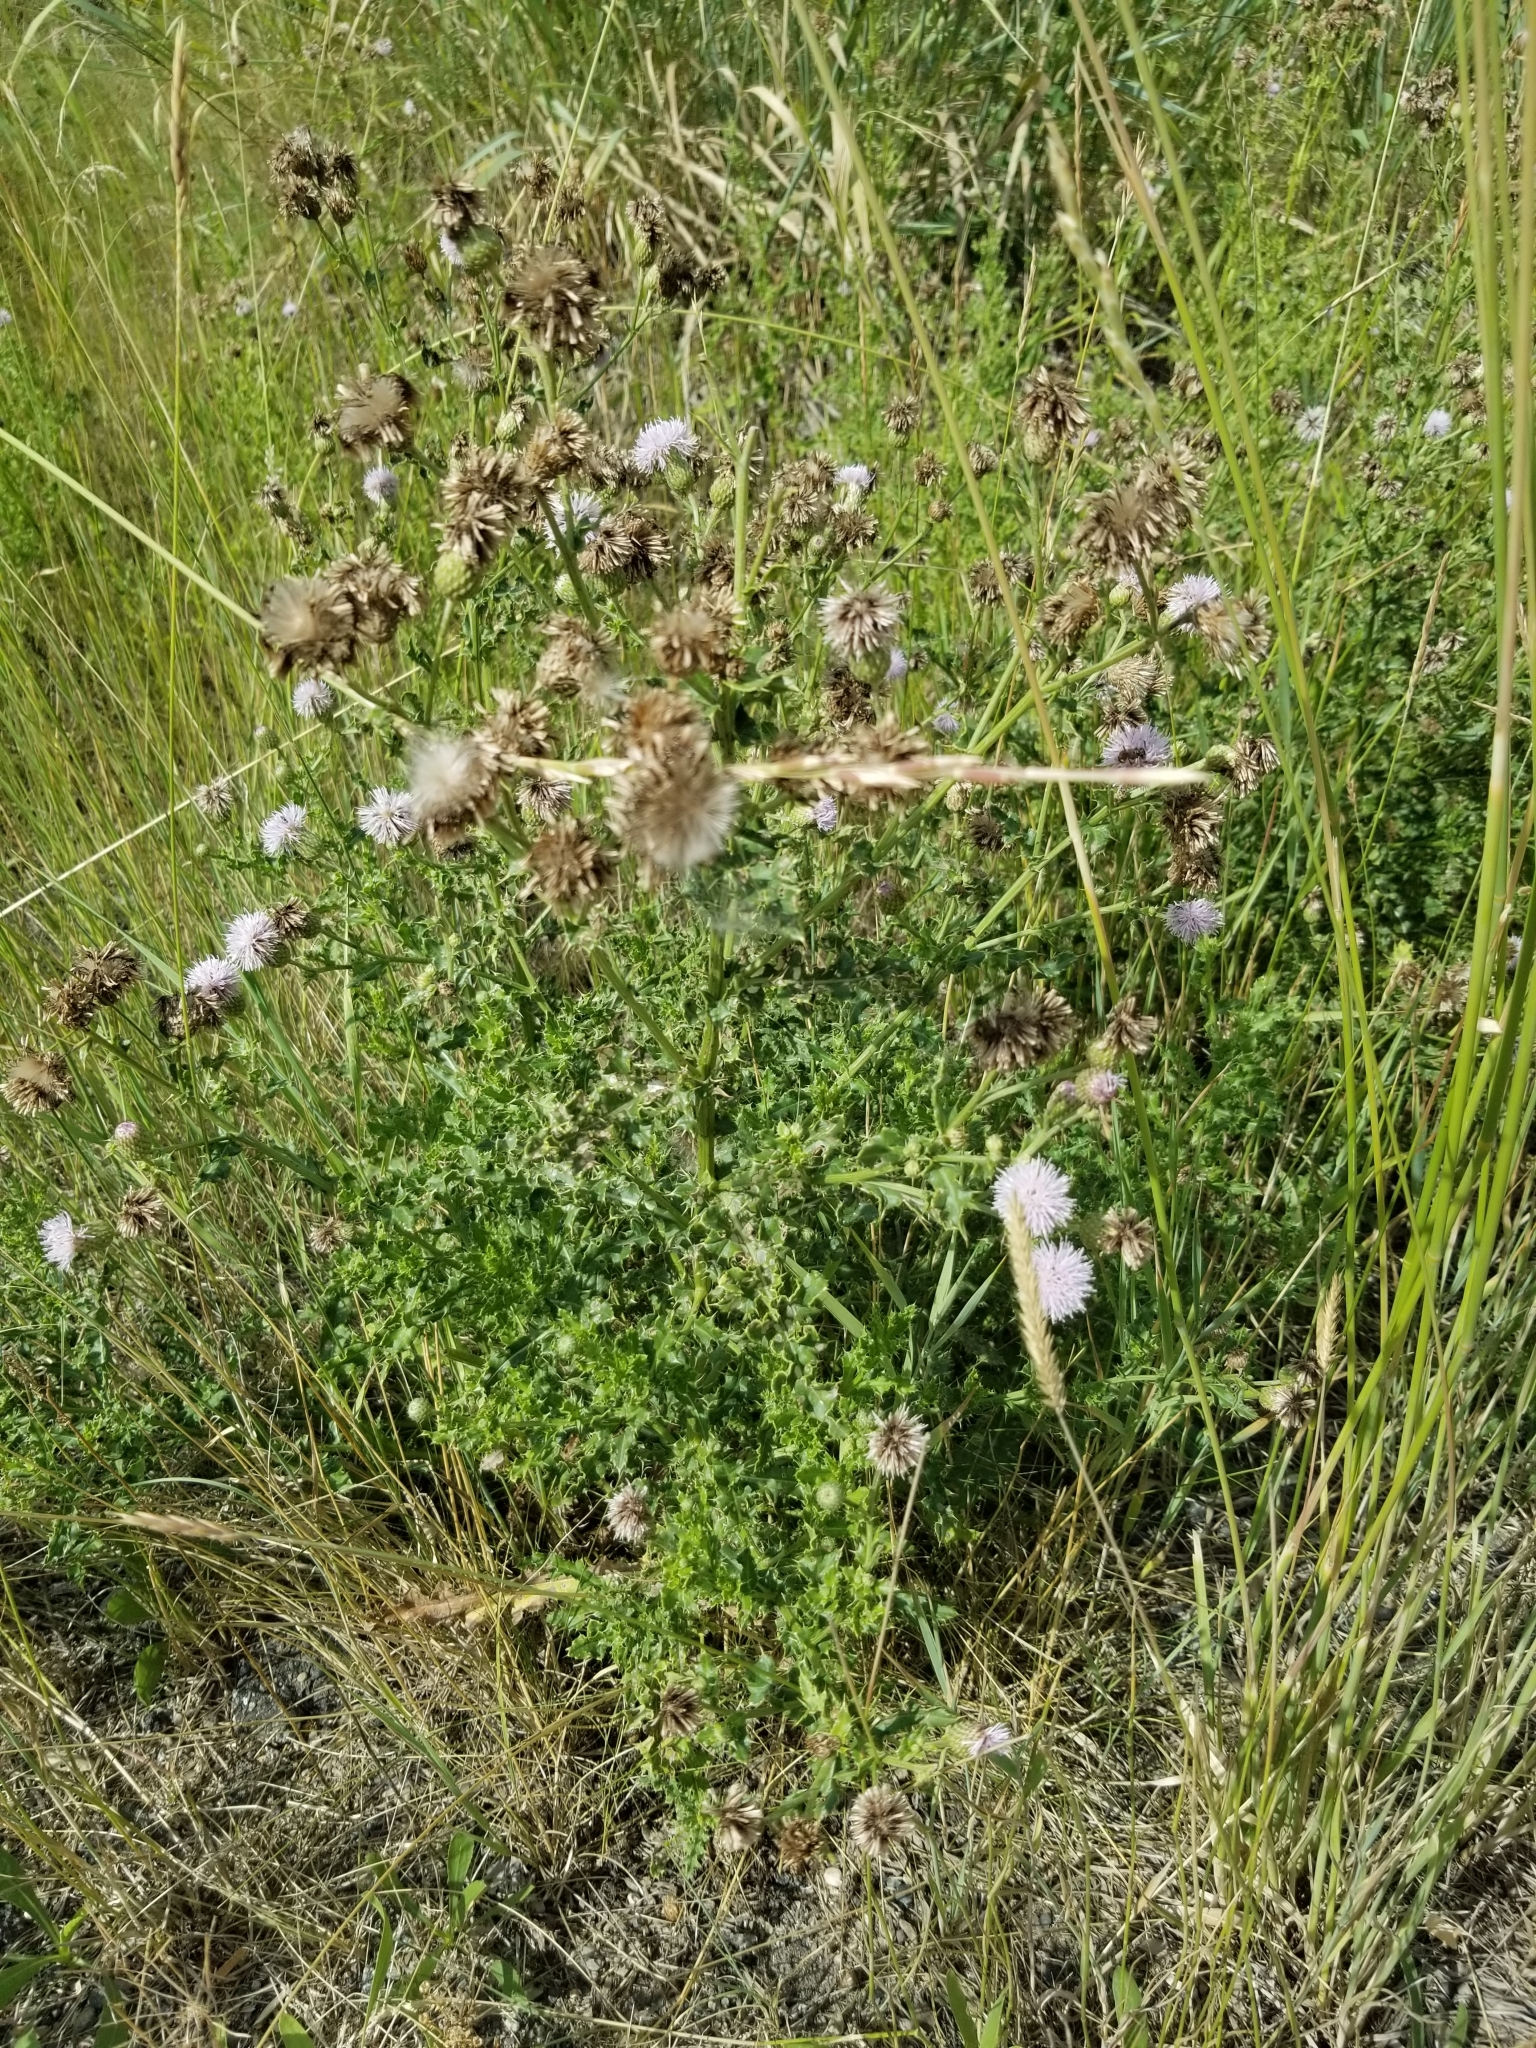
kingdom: Plantae
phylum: Tracheophyta
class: Magnoliopsida
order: Asterales
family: Asteraceae
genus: Cirsium
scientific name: Cirsium arvense
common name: Creeping thistle
